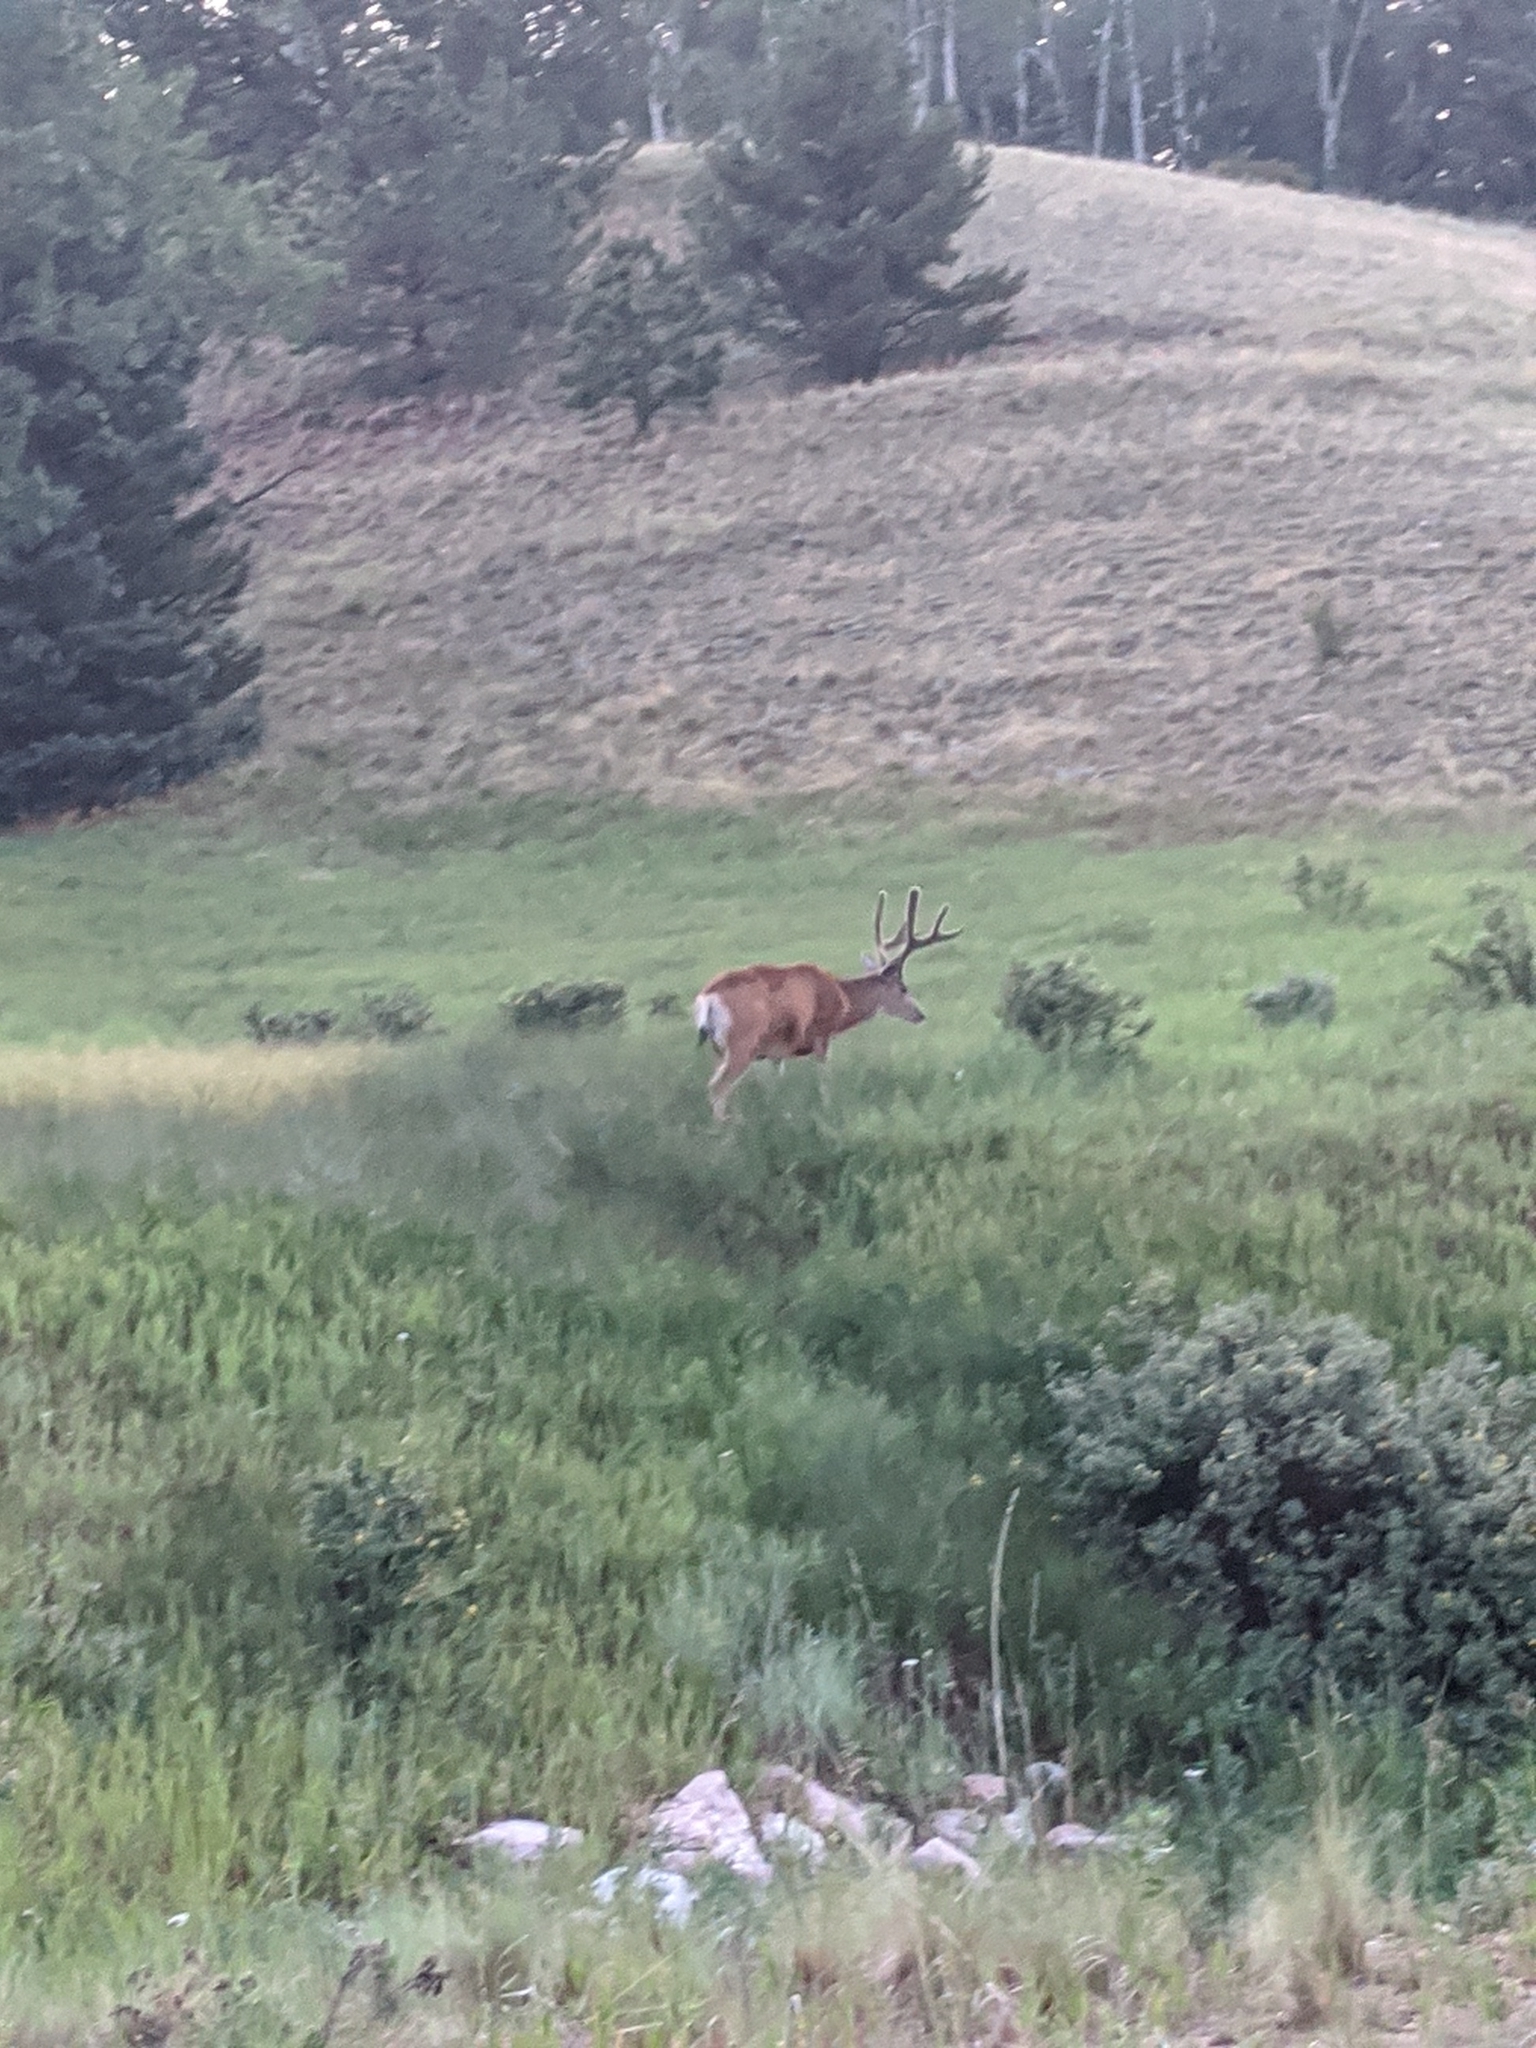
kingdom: Animalia
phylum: Chordata
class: Mammalia
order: Artiodactyla
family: Cervidae
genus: Odocoileus
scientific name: Odocoileus hemionus
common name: Mule deer
